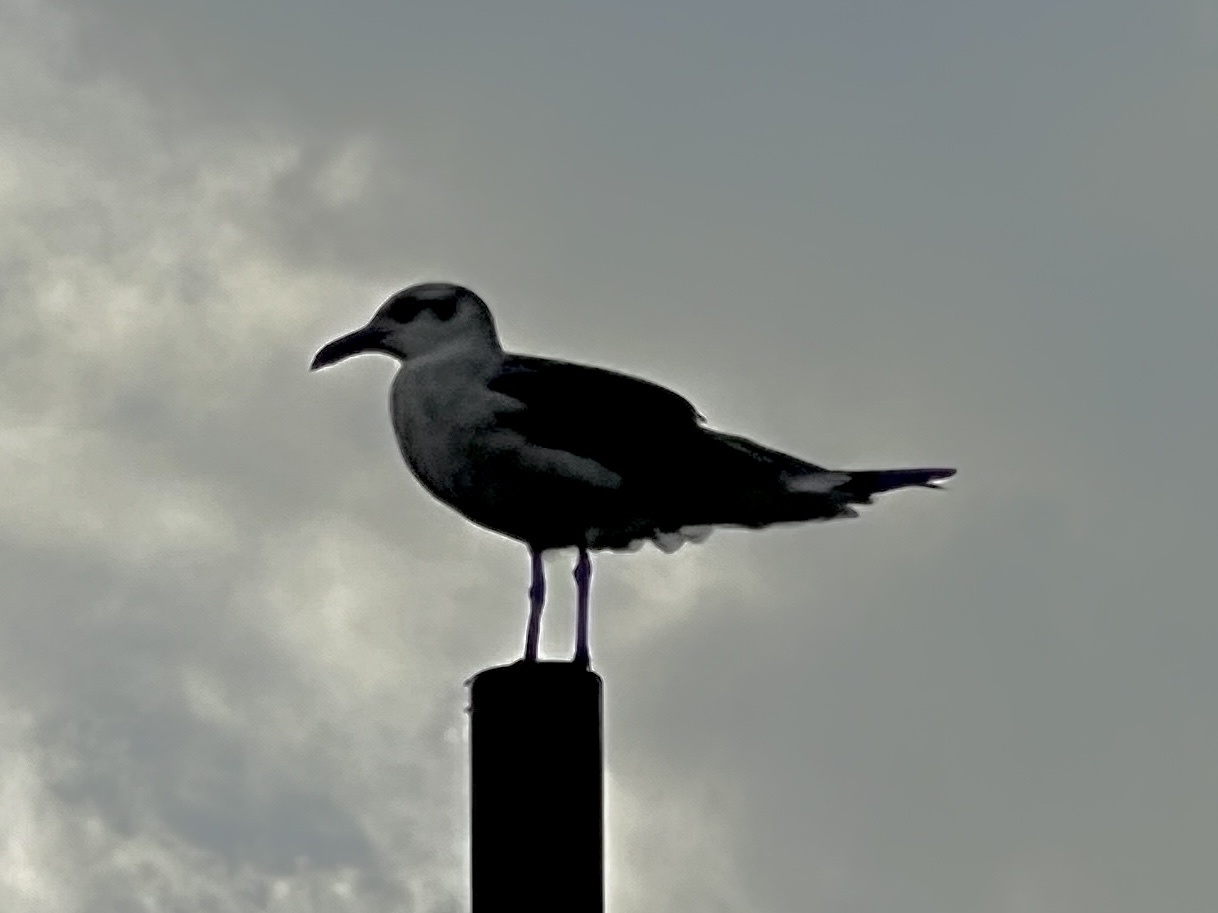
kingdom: Animalia
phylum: Chordata
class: Aves
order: Charadriiformes
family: Laridae
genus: Leucophaeus
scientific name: Leucophaeus atricilla
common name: Laughing gull
